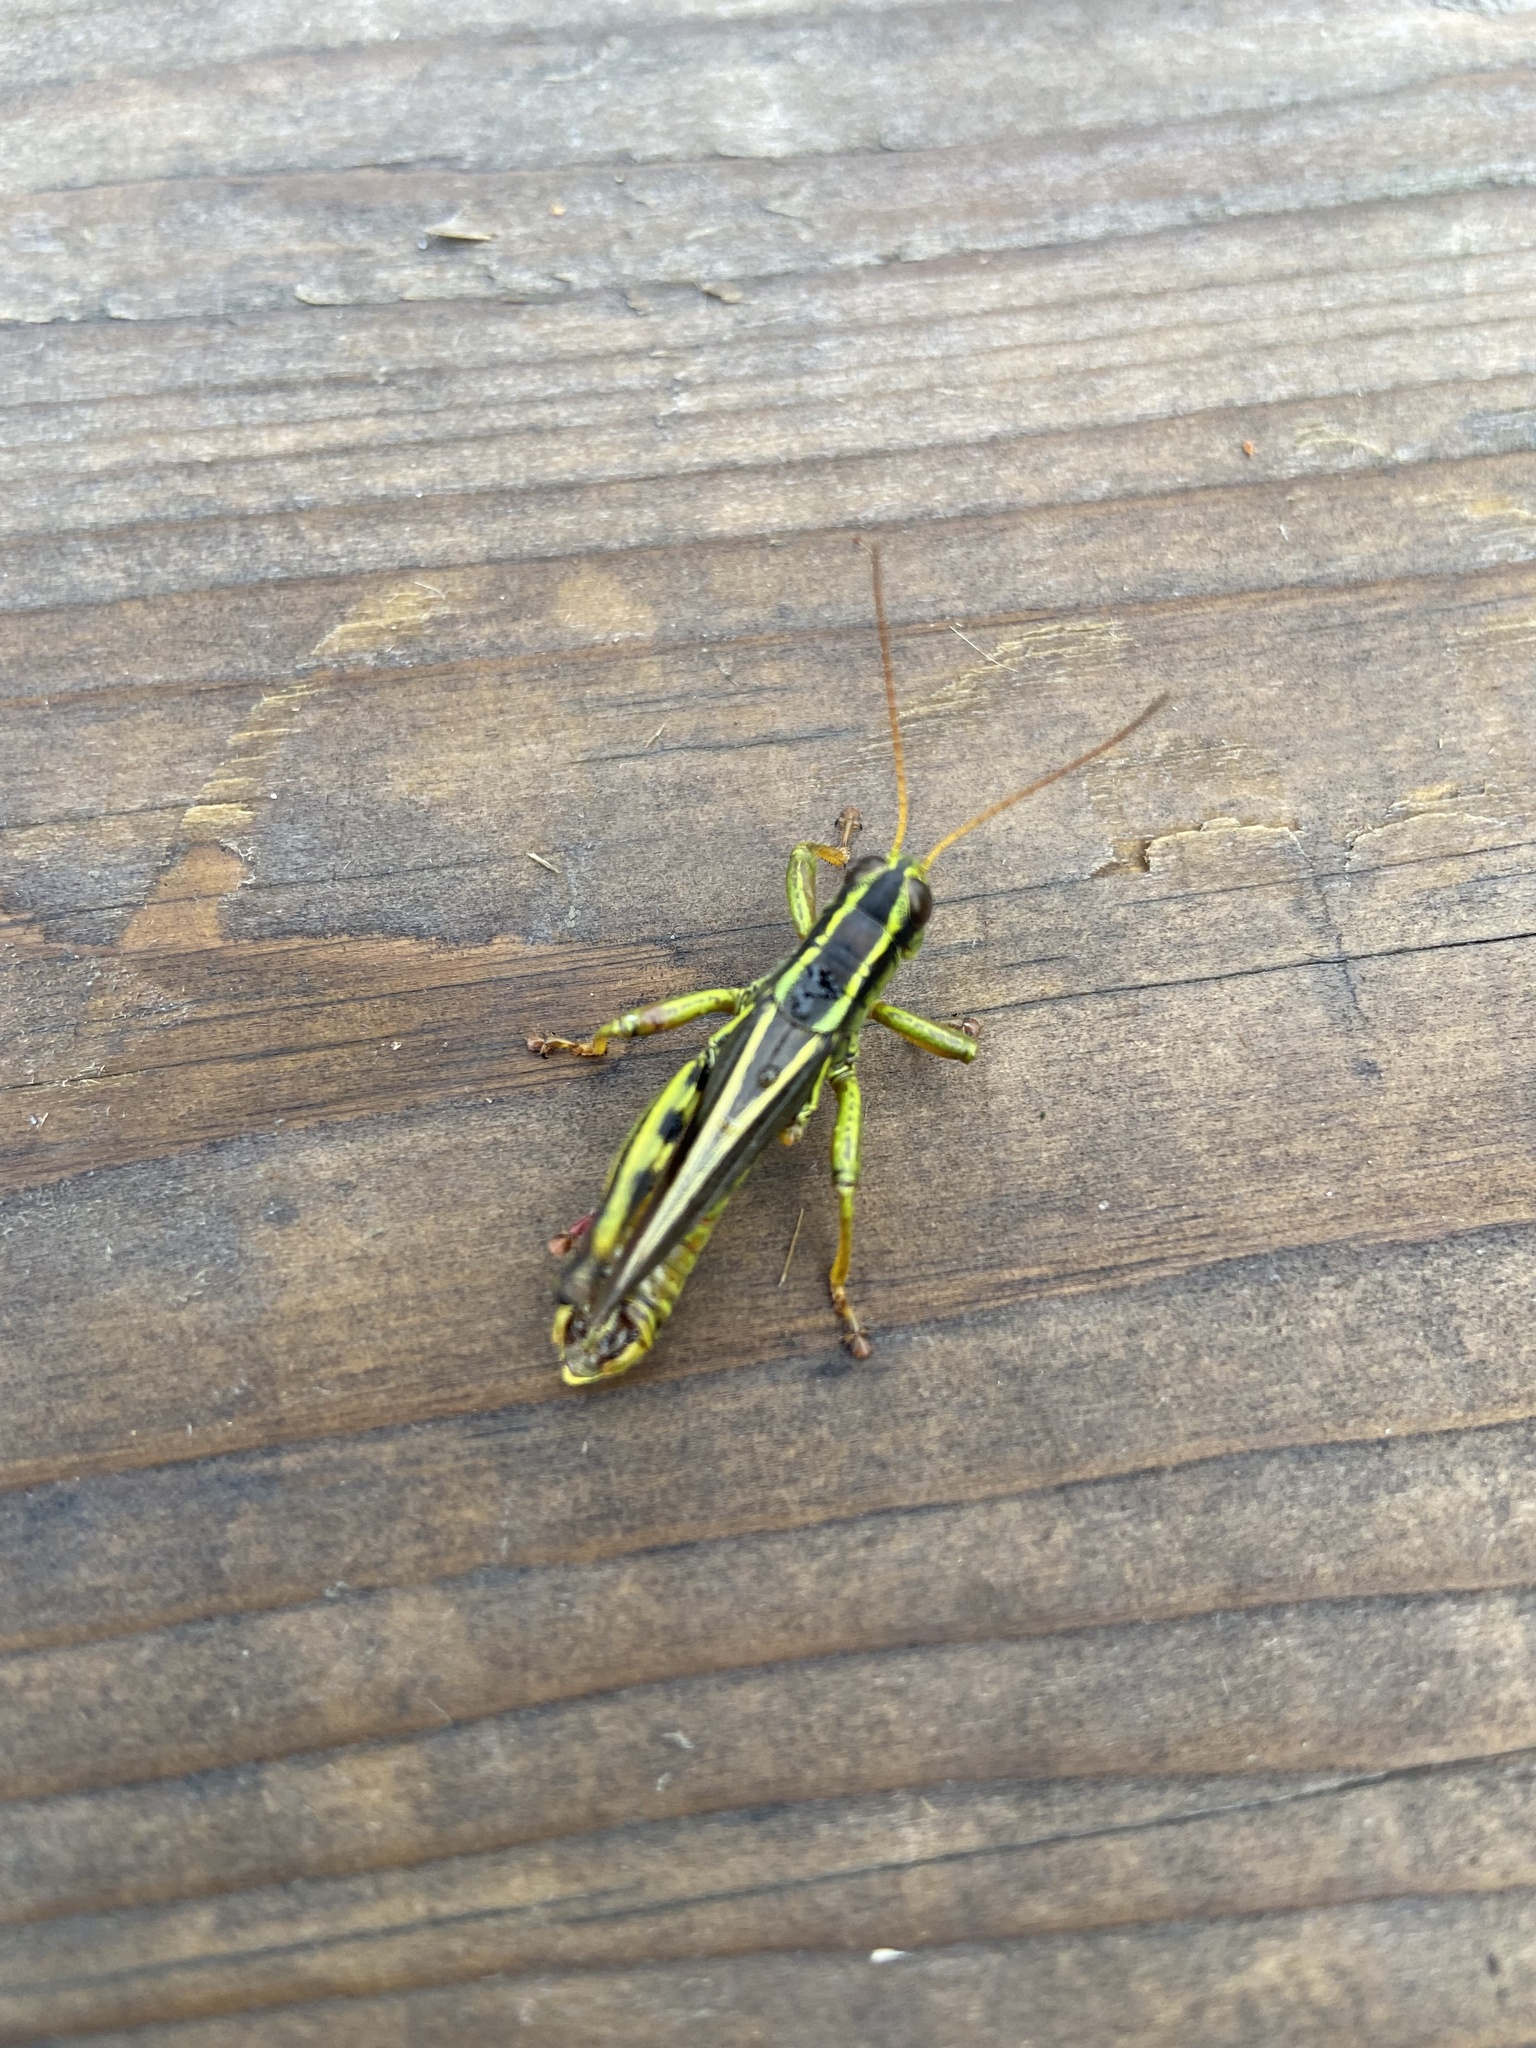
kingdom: Animalia
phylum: Arthropoda
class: Insecta
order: Orthoptera
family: Acrididae
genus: Melanoplus
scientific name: Melanoplus bivittatus
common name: Two-striped grasshopper
